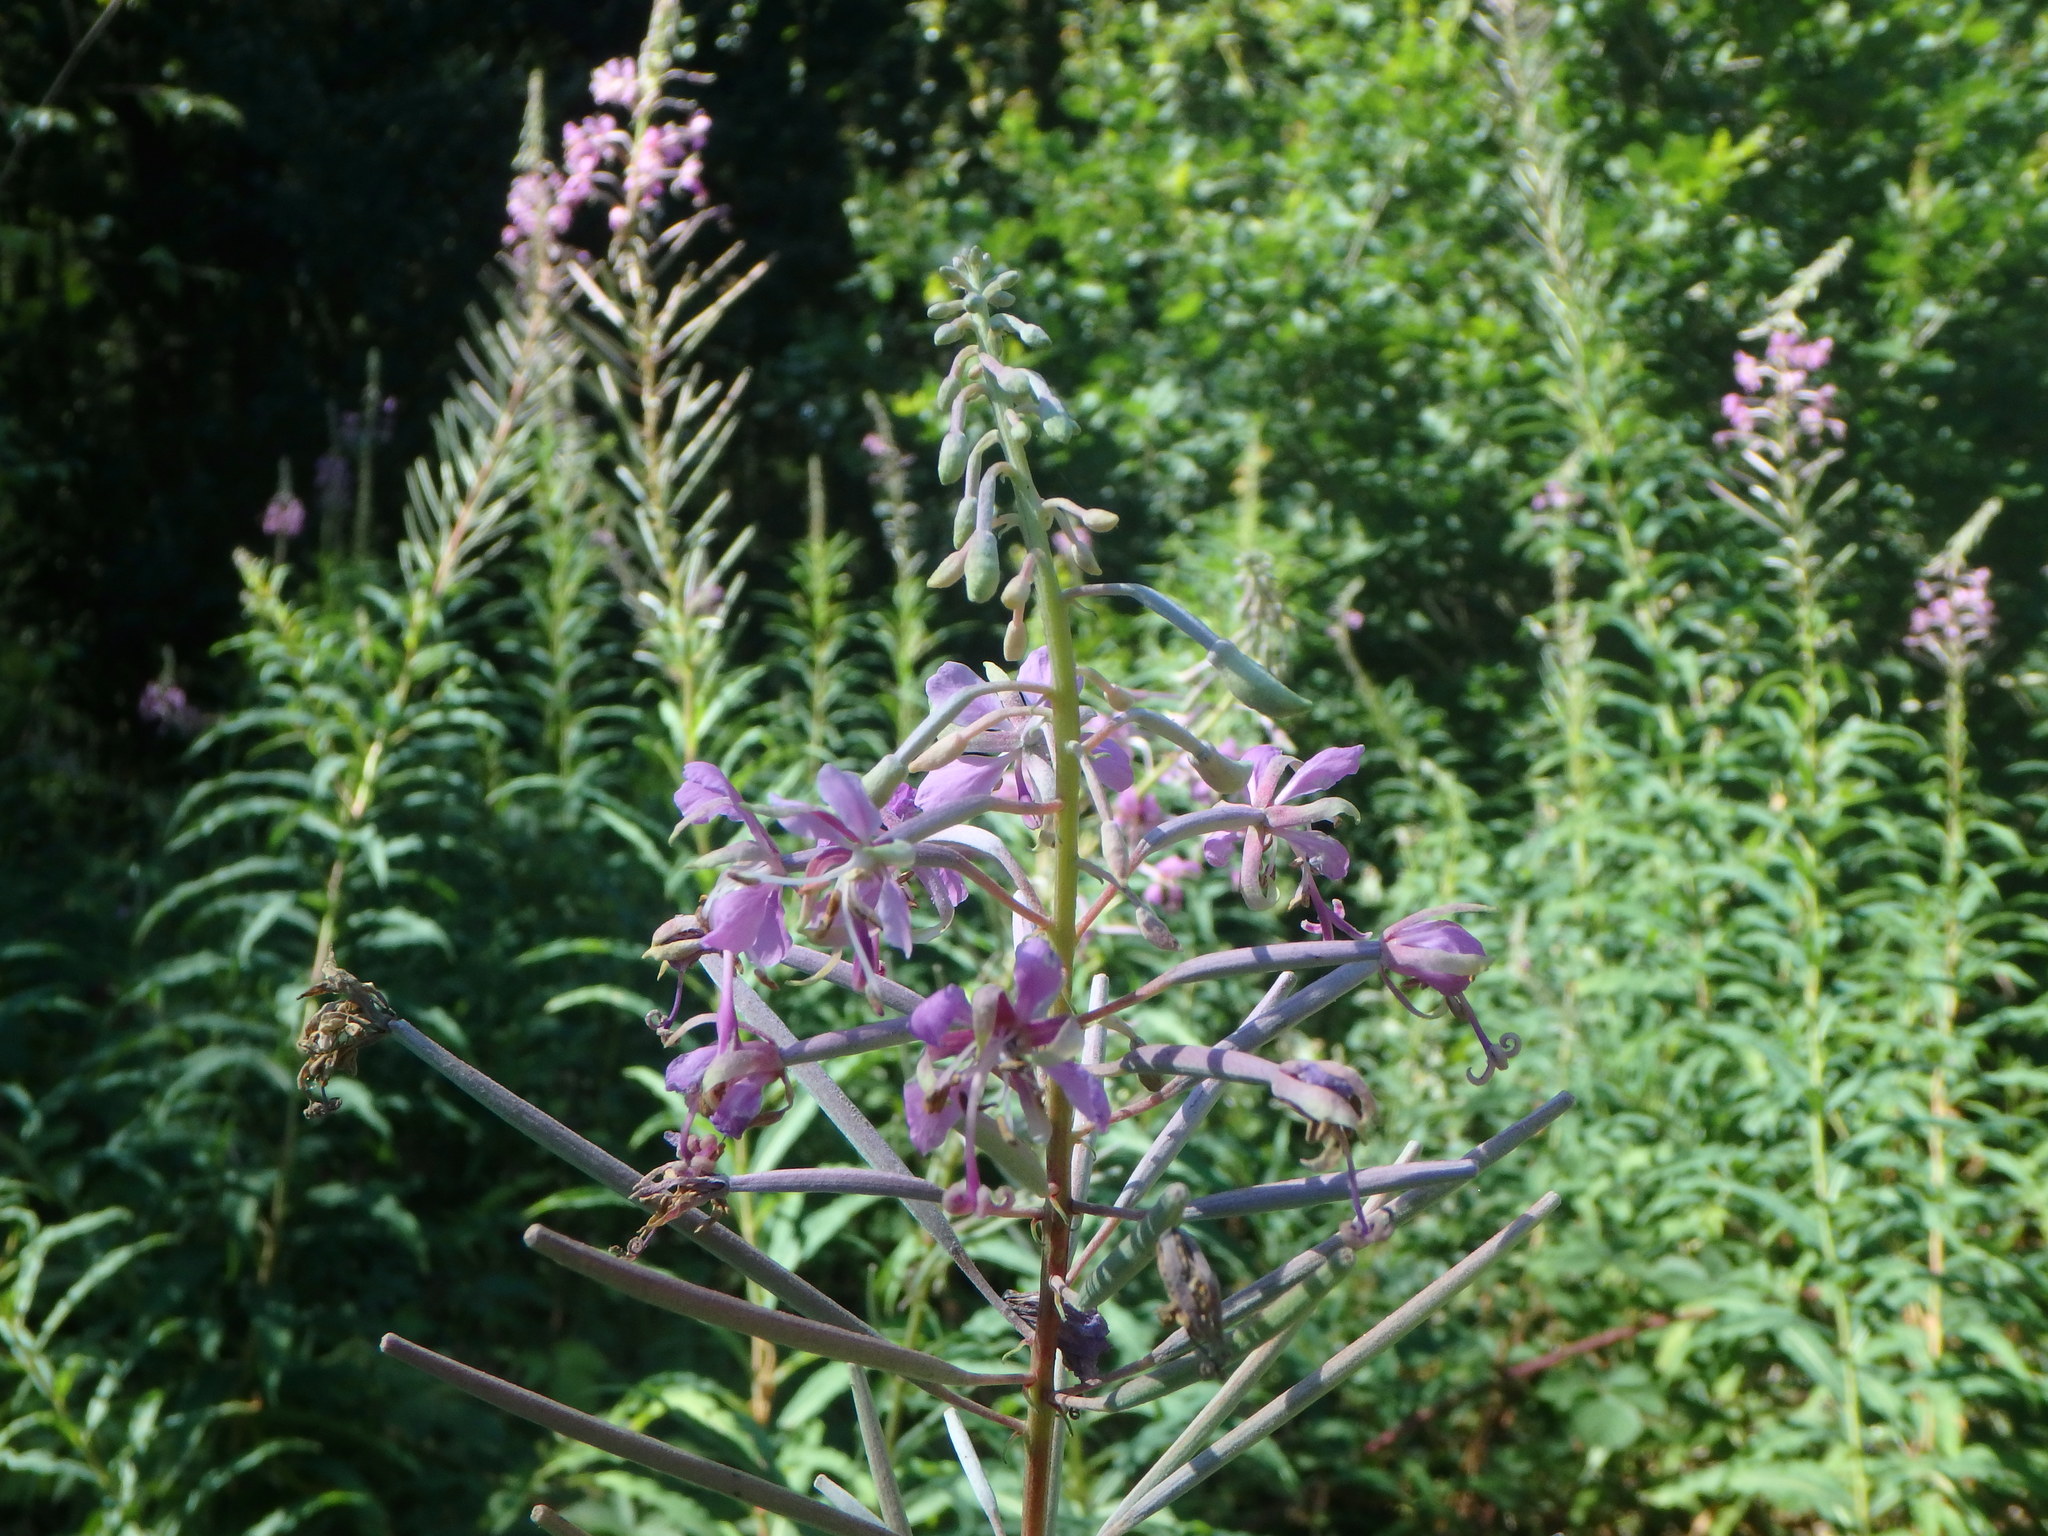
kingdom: Plantae
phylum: Tracheophyta
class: Magnoliopsida
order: Myrtales
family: Onagraceae
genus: Chamaenerion
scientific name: Chamaenerion angustifolium
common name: Fireweed
